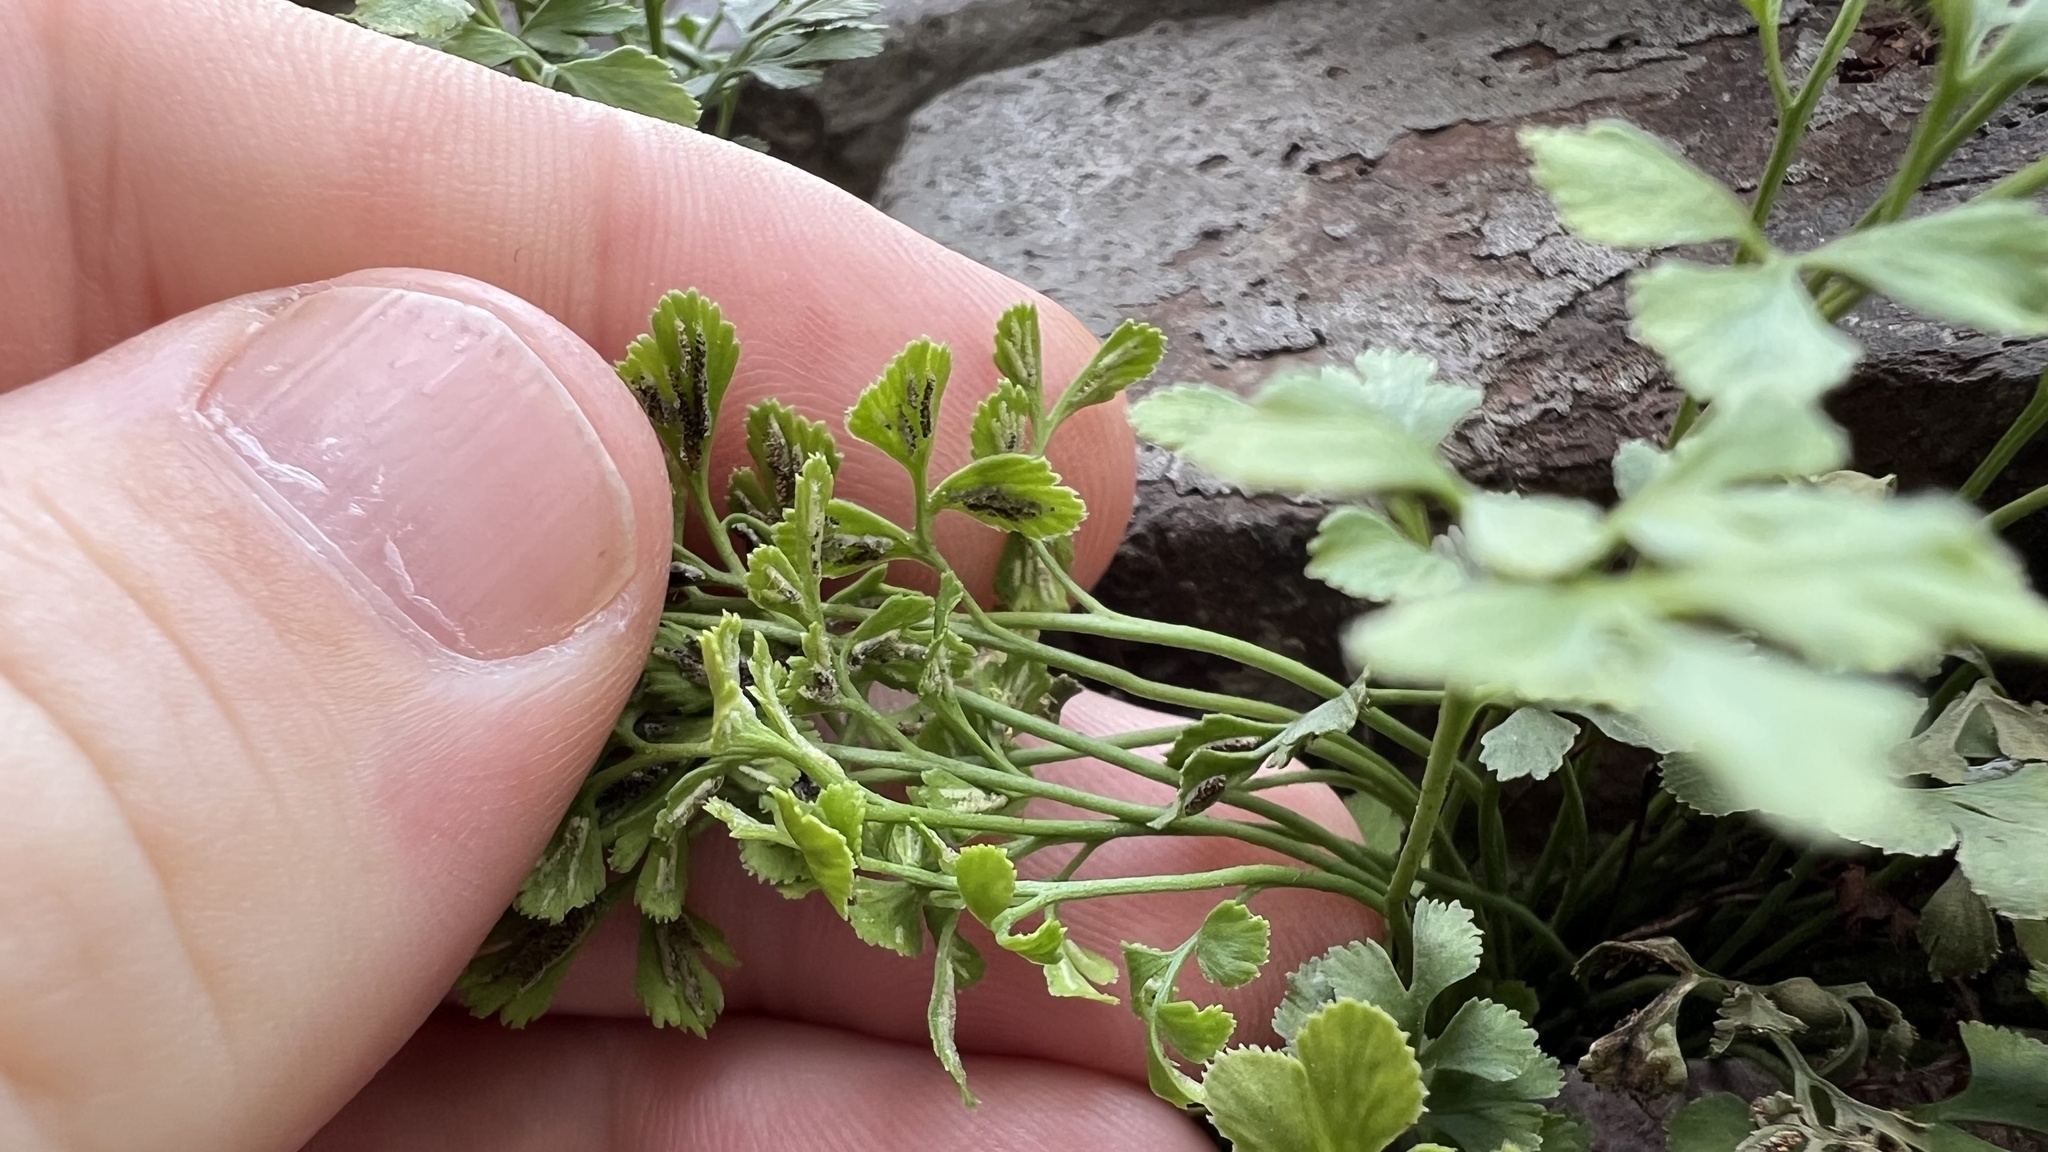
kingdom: Plantae
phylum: Tracheophyta
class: Polypodiopsida
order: Polypodiales
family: Aspleniaceae
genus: Asplenium
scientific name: Asplenium ruta-muraria
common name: Wall-rue
